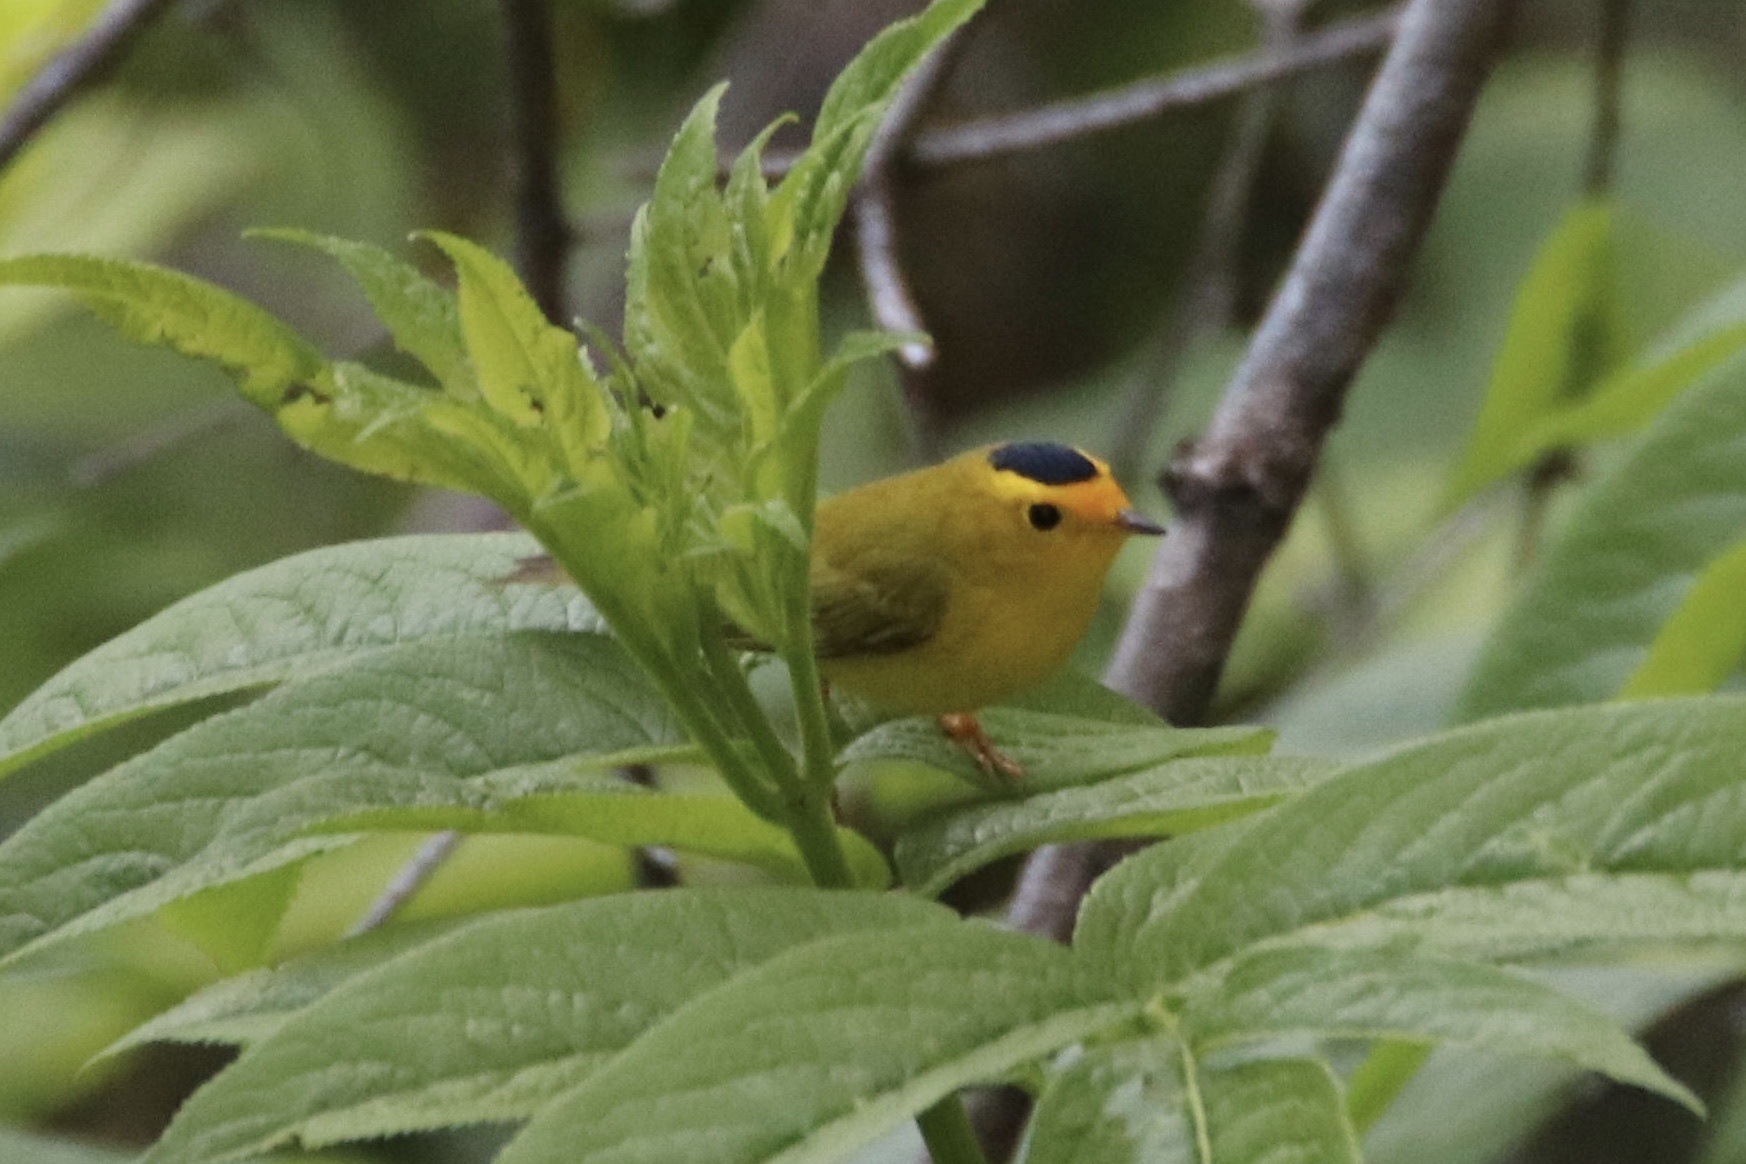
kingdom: Animalia
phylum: Chordata
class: Aves
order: Passeriformes
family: Parulidae
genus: Cardellina
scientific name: Cardellina pusilla
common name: Wilson's warbler
